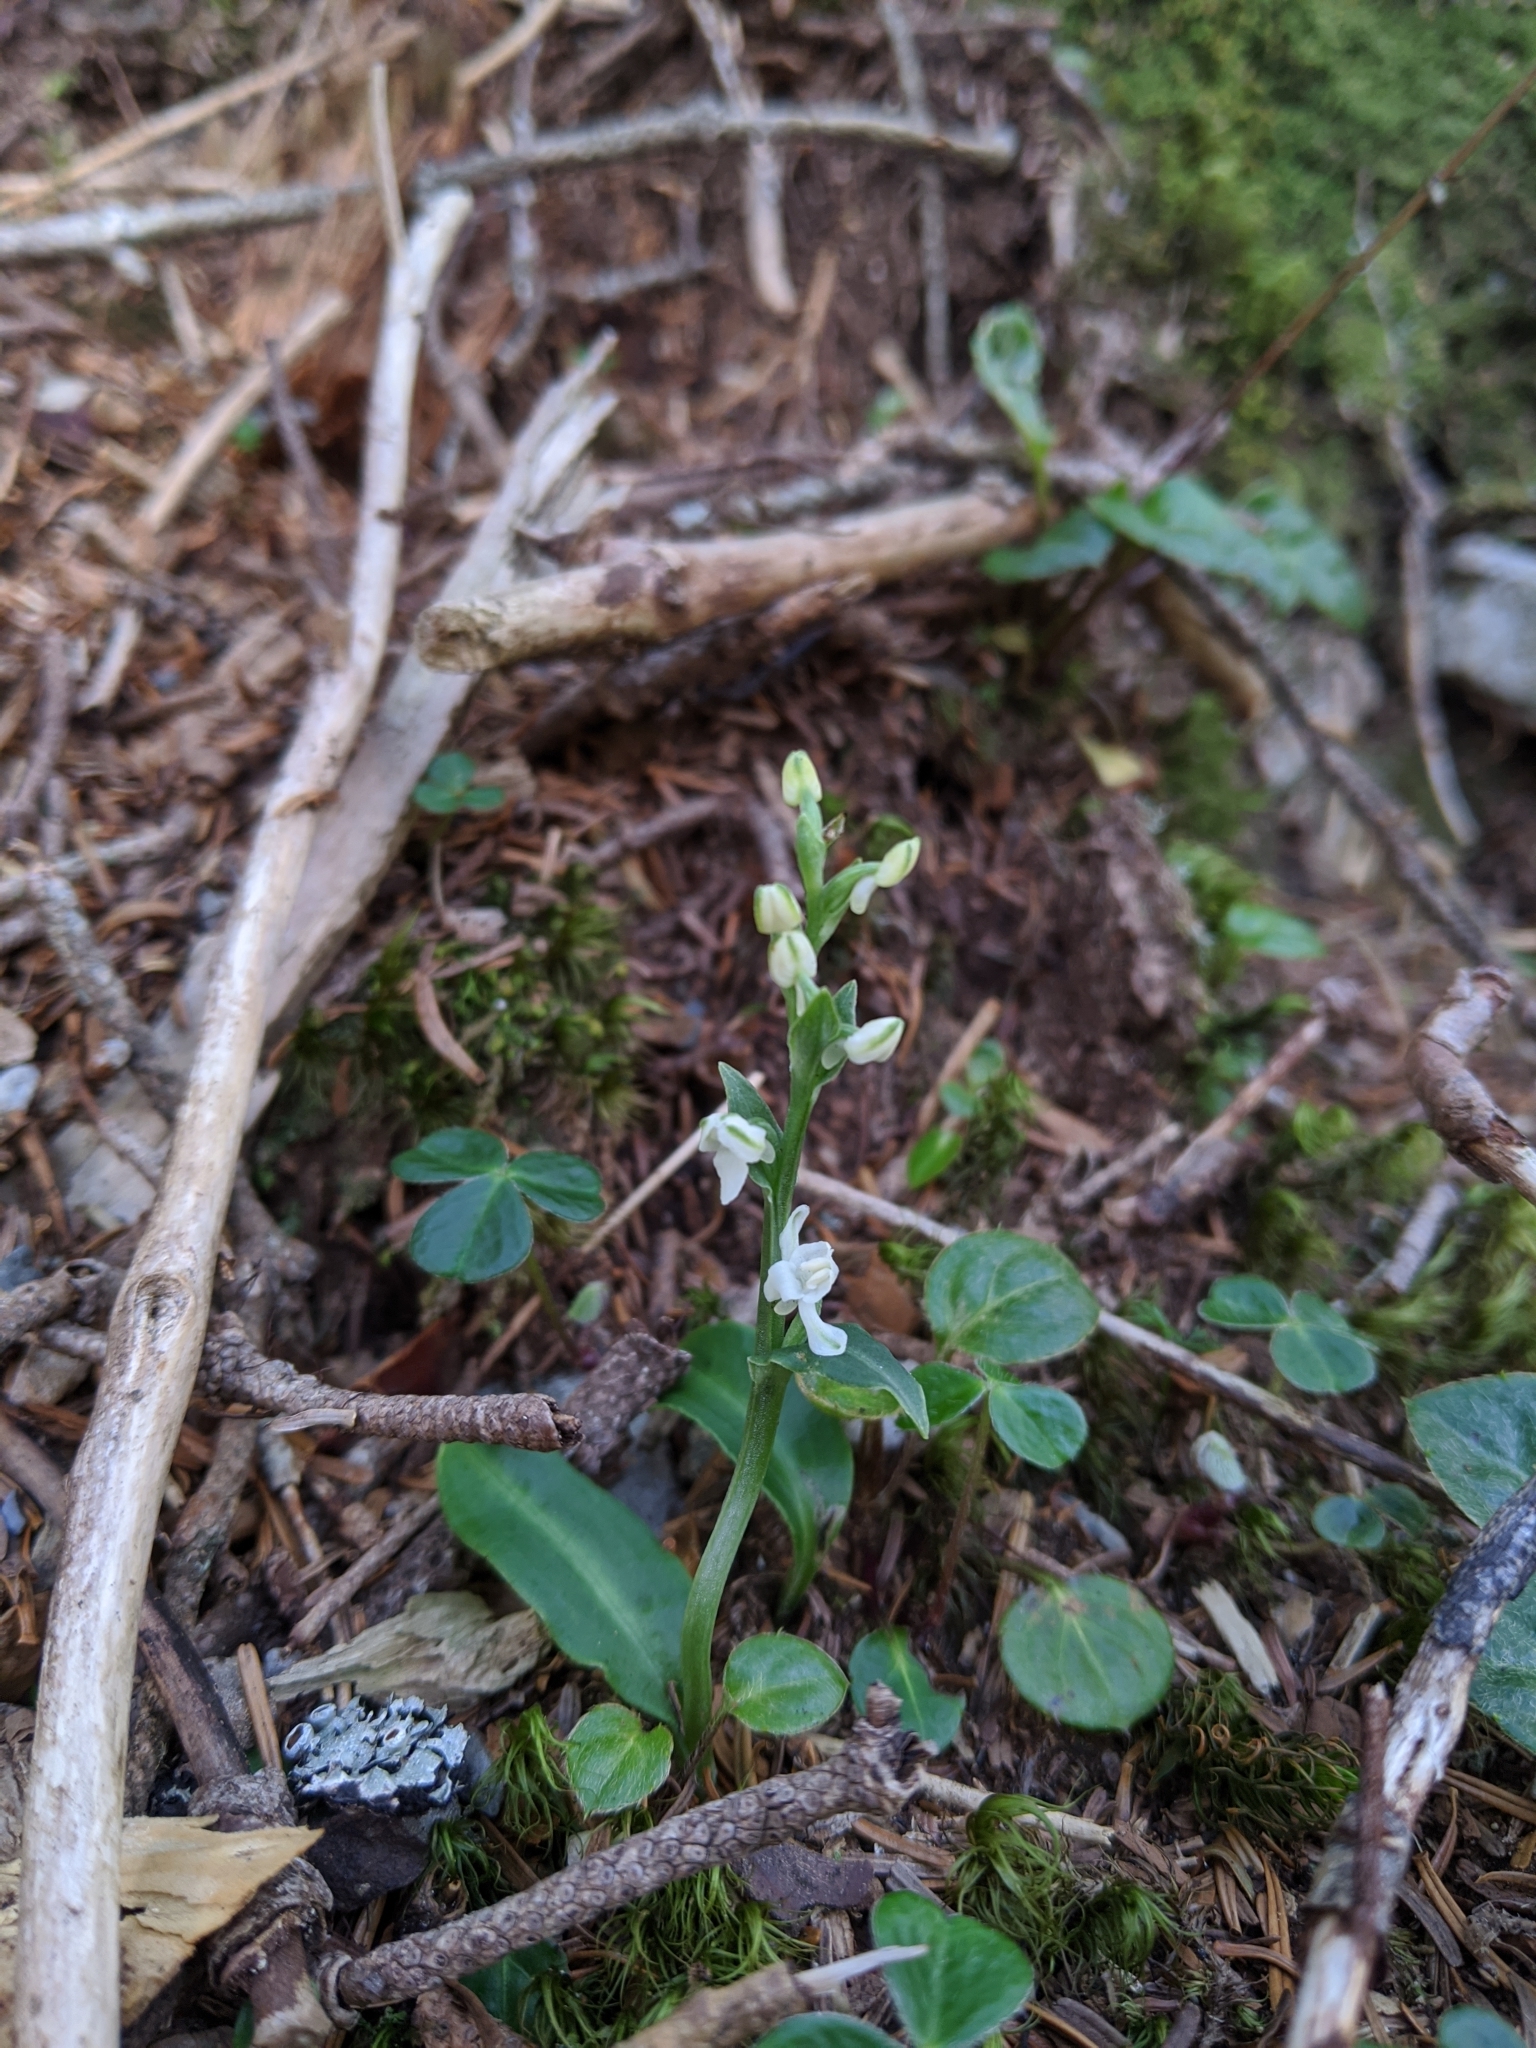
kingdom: Plantae
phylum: Tracheophyta
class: Liliopsida
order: Asparagales
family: Orchidaceae
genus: Platanthera
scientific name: Platanthera brevicalcarata
